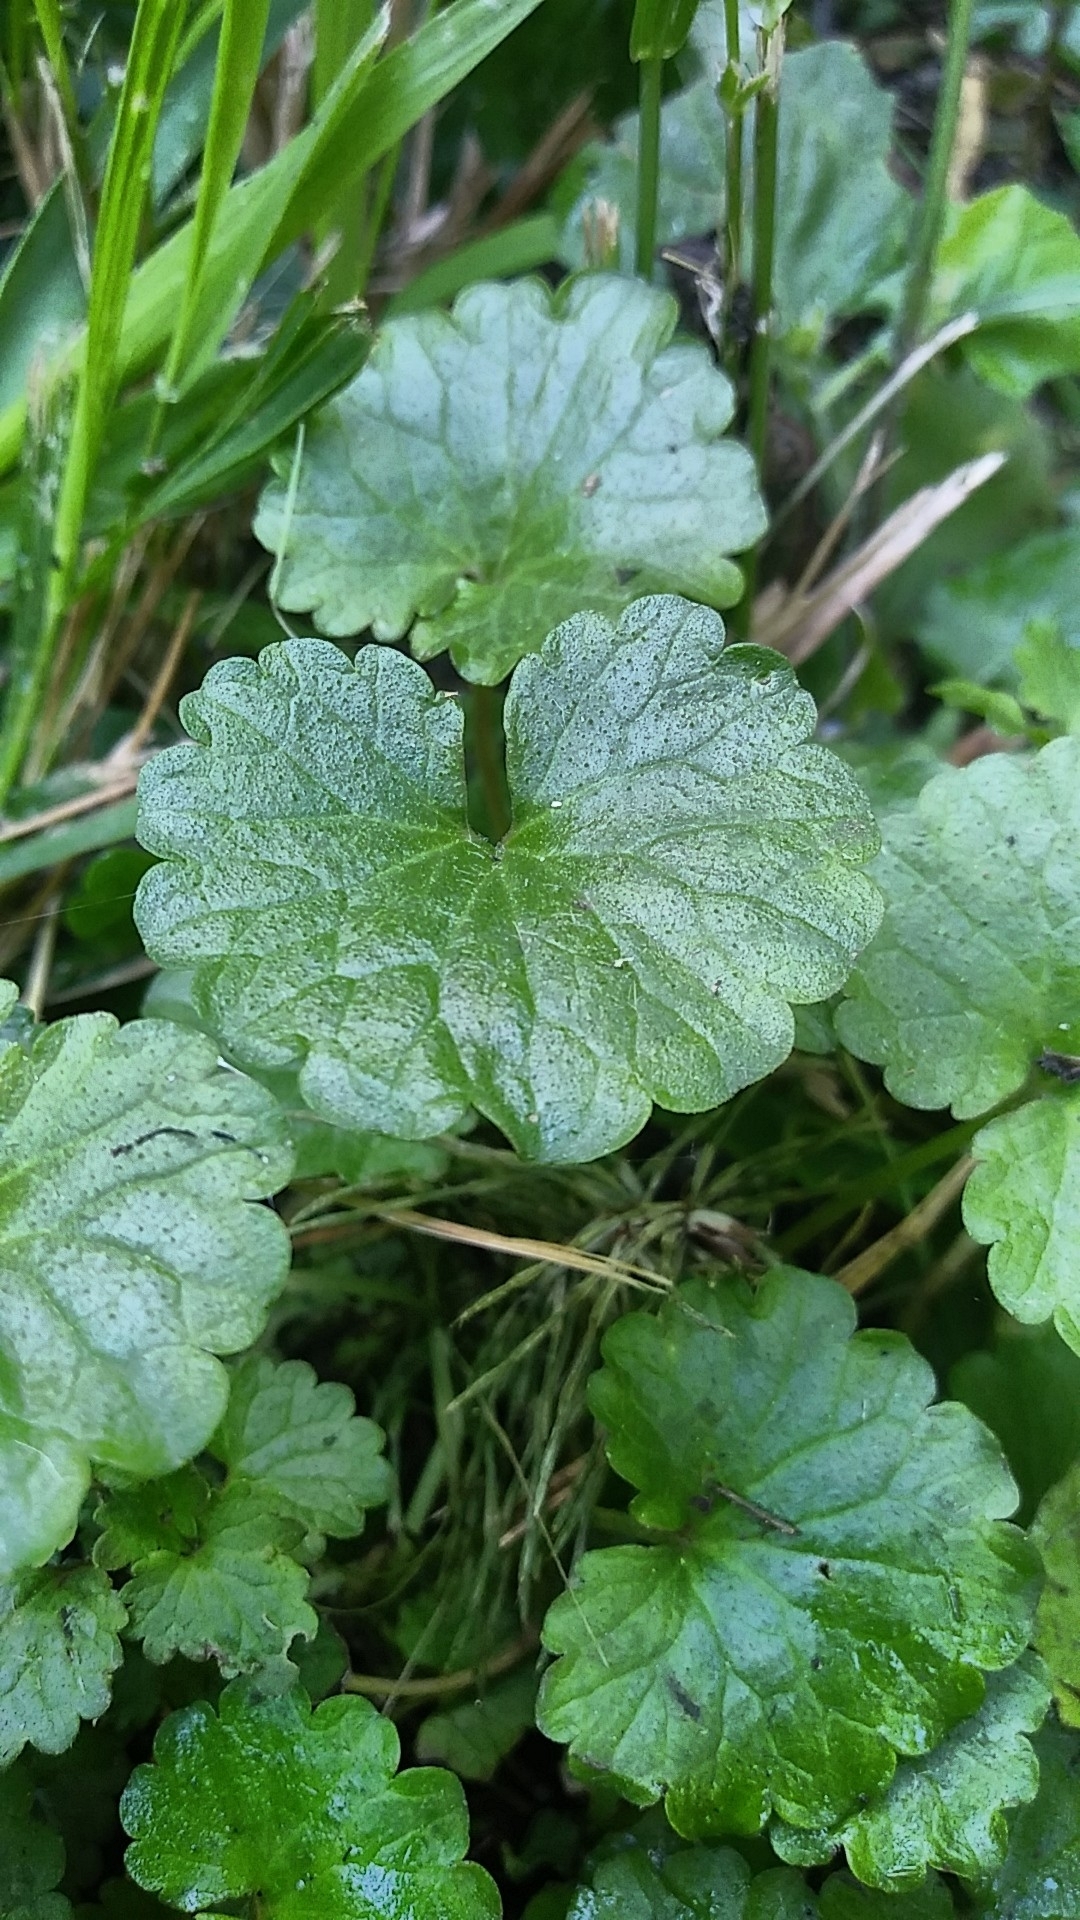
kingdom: Plantae
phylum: Tracheophyta
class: Magnoliopsida
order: Lamiales
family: Lamiaceae
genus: Glechoma
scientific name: Glechoma hederacea
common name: Ground ivy
